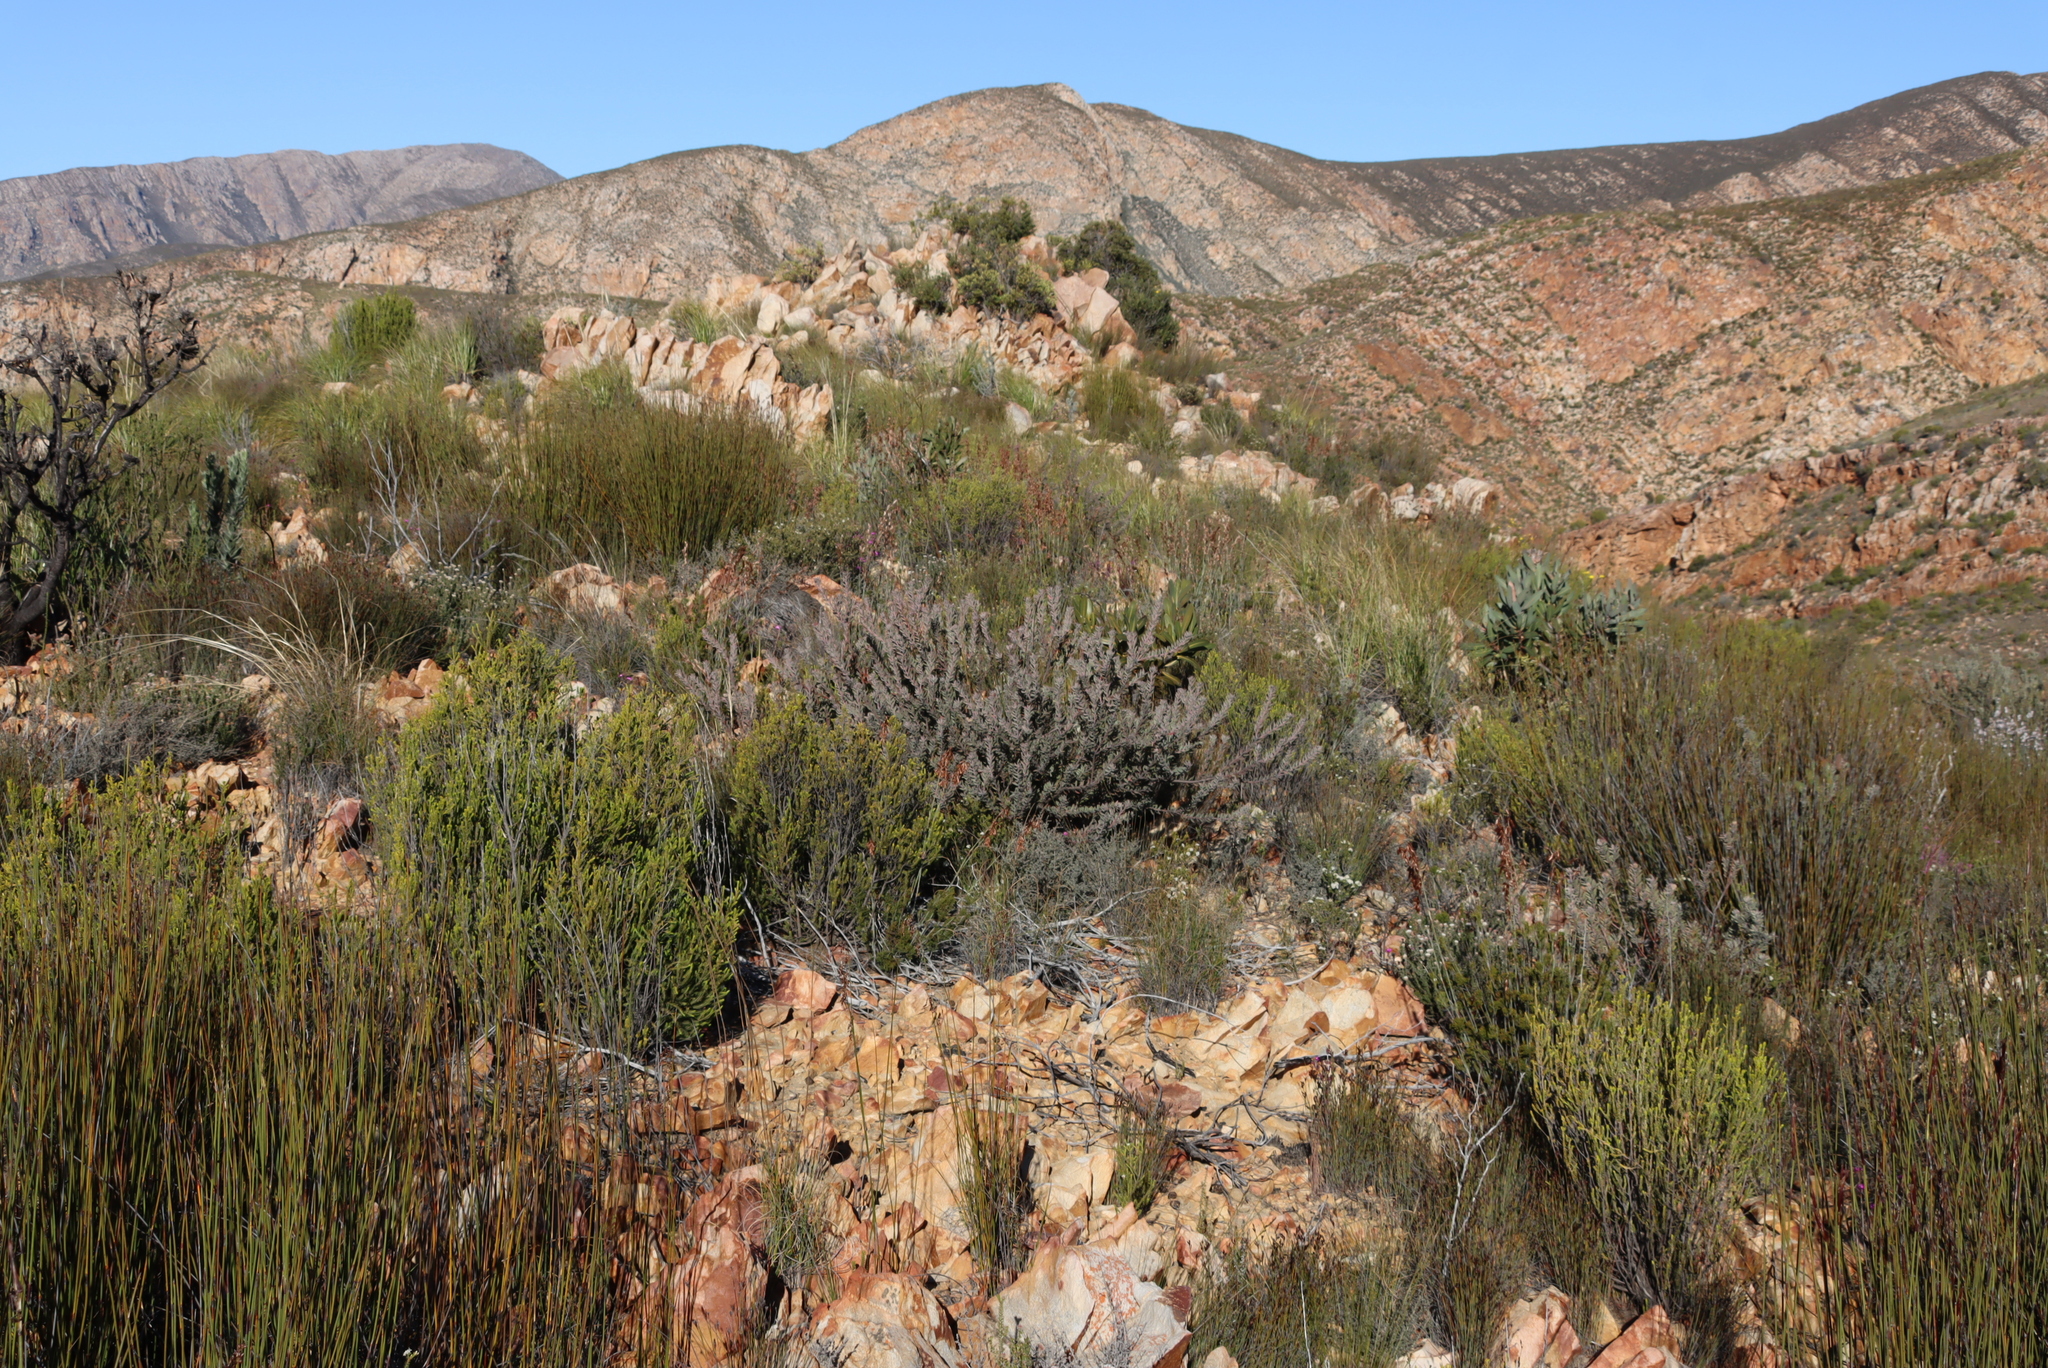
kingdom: Plantae
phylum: Tracheophyta
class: Magnoliopsida
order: Proteales
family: Proteaceae
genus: Leucospermum
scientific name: Leucospermum wittebergense
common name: Swartberg pincushion
